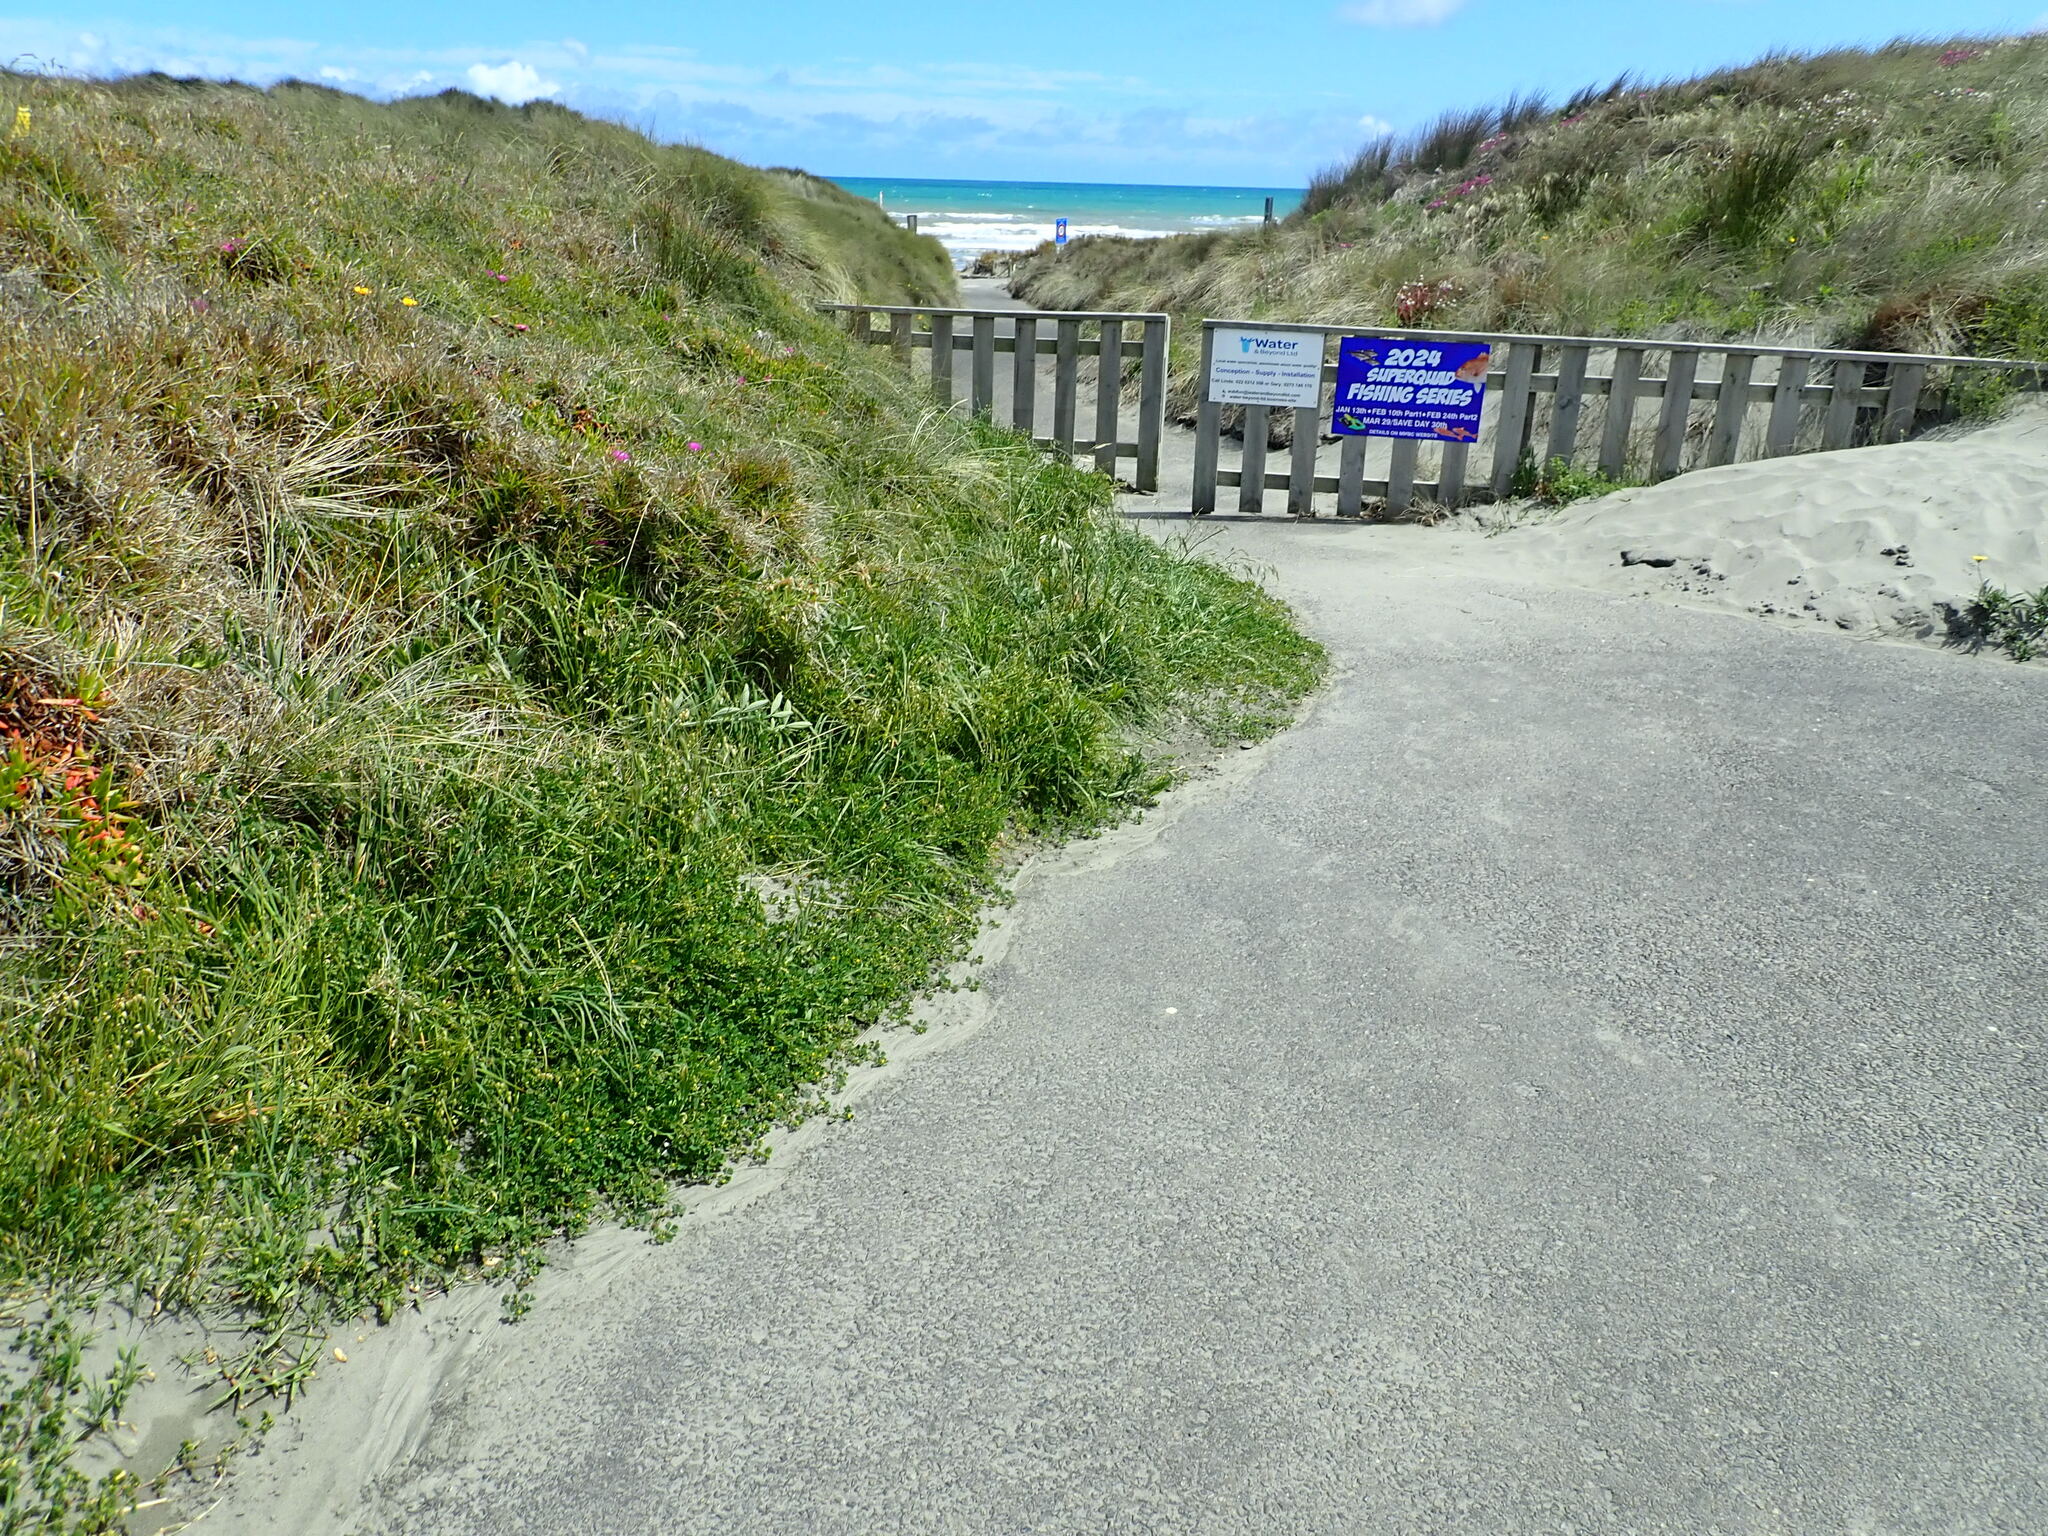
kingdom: Plantae
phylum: Tracheophyta
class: Liliopsida
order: Poales
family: Poaceae
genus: Briza
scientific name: Briza maxima
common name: Big quakinggrass
